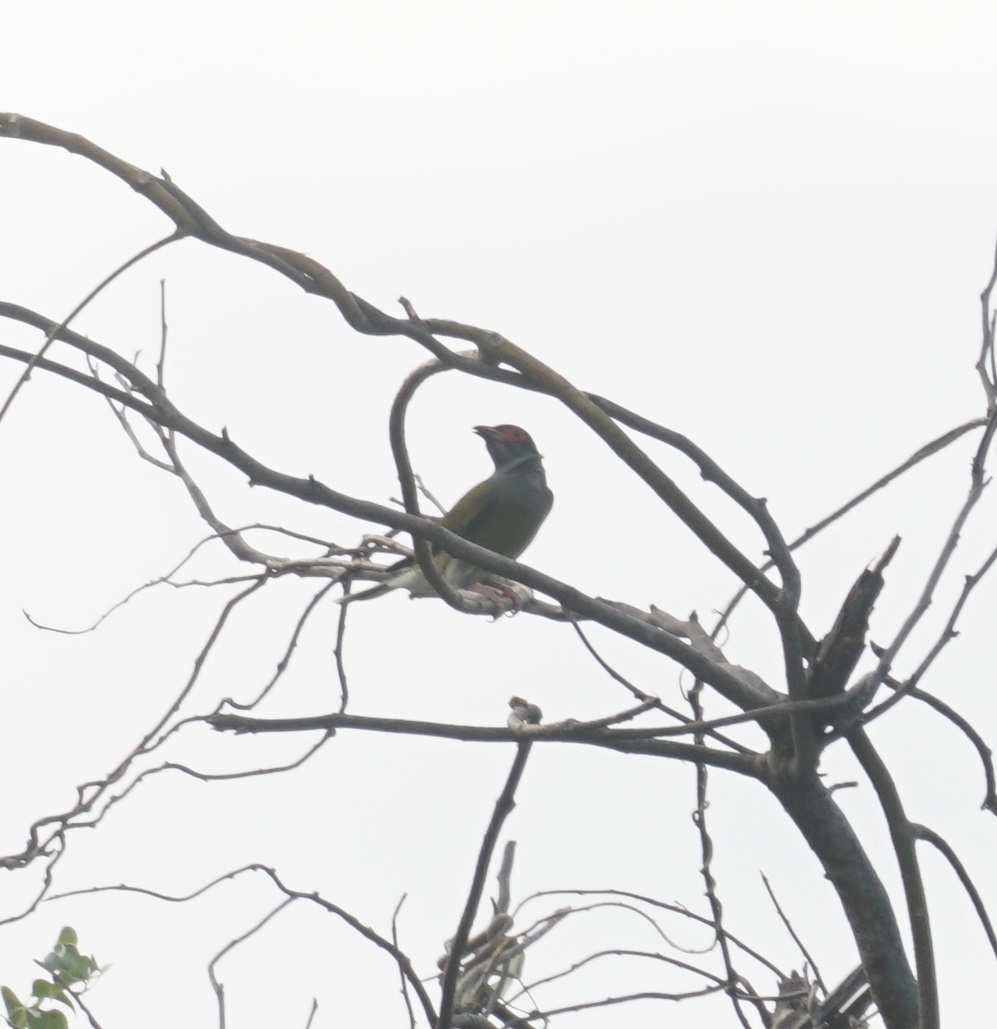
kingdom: Animalia
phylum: Chordata
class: Aves
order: Passeriformes
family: Oriolidae
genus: Sphecotheres
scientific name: Sphecotheres vieilloti
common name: Australasian figbird
